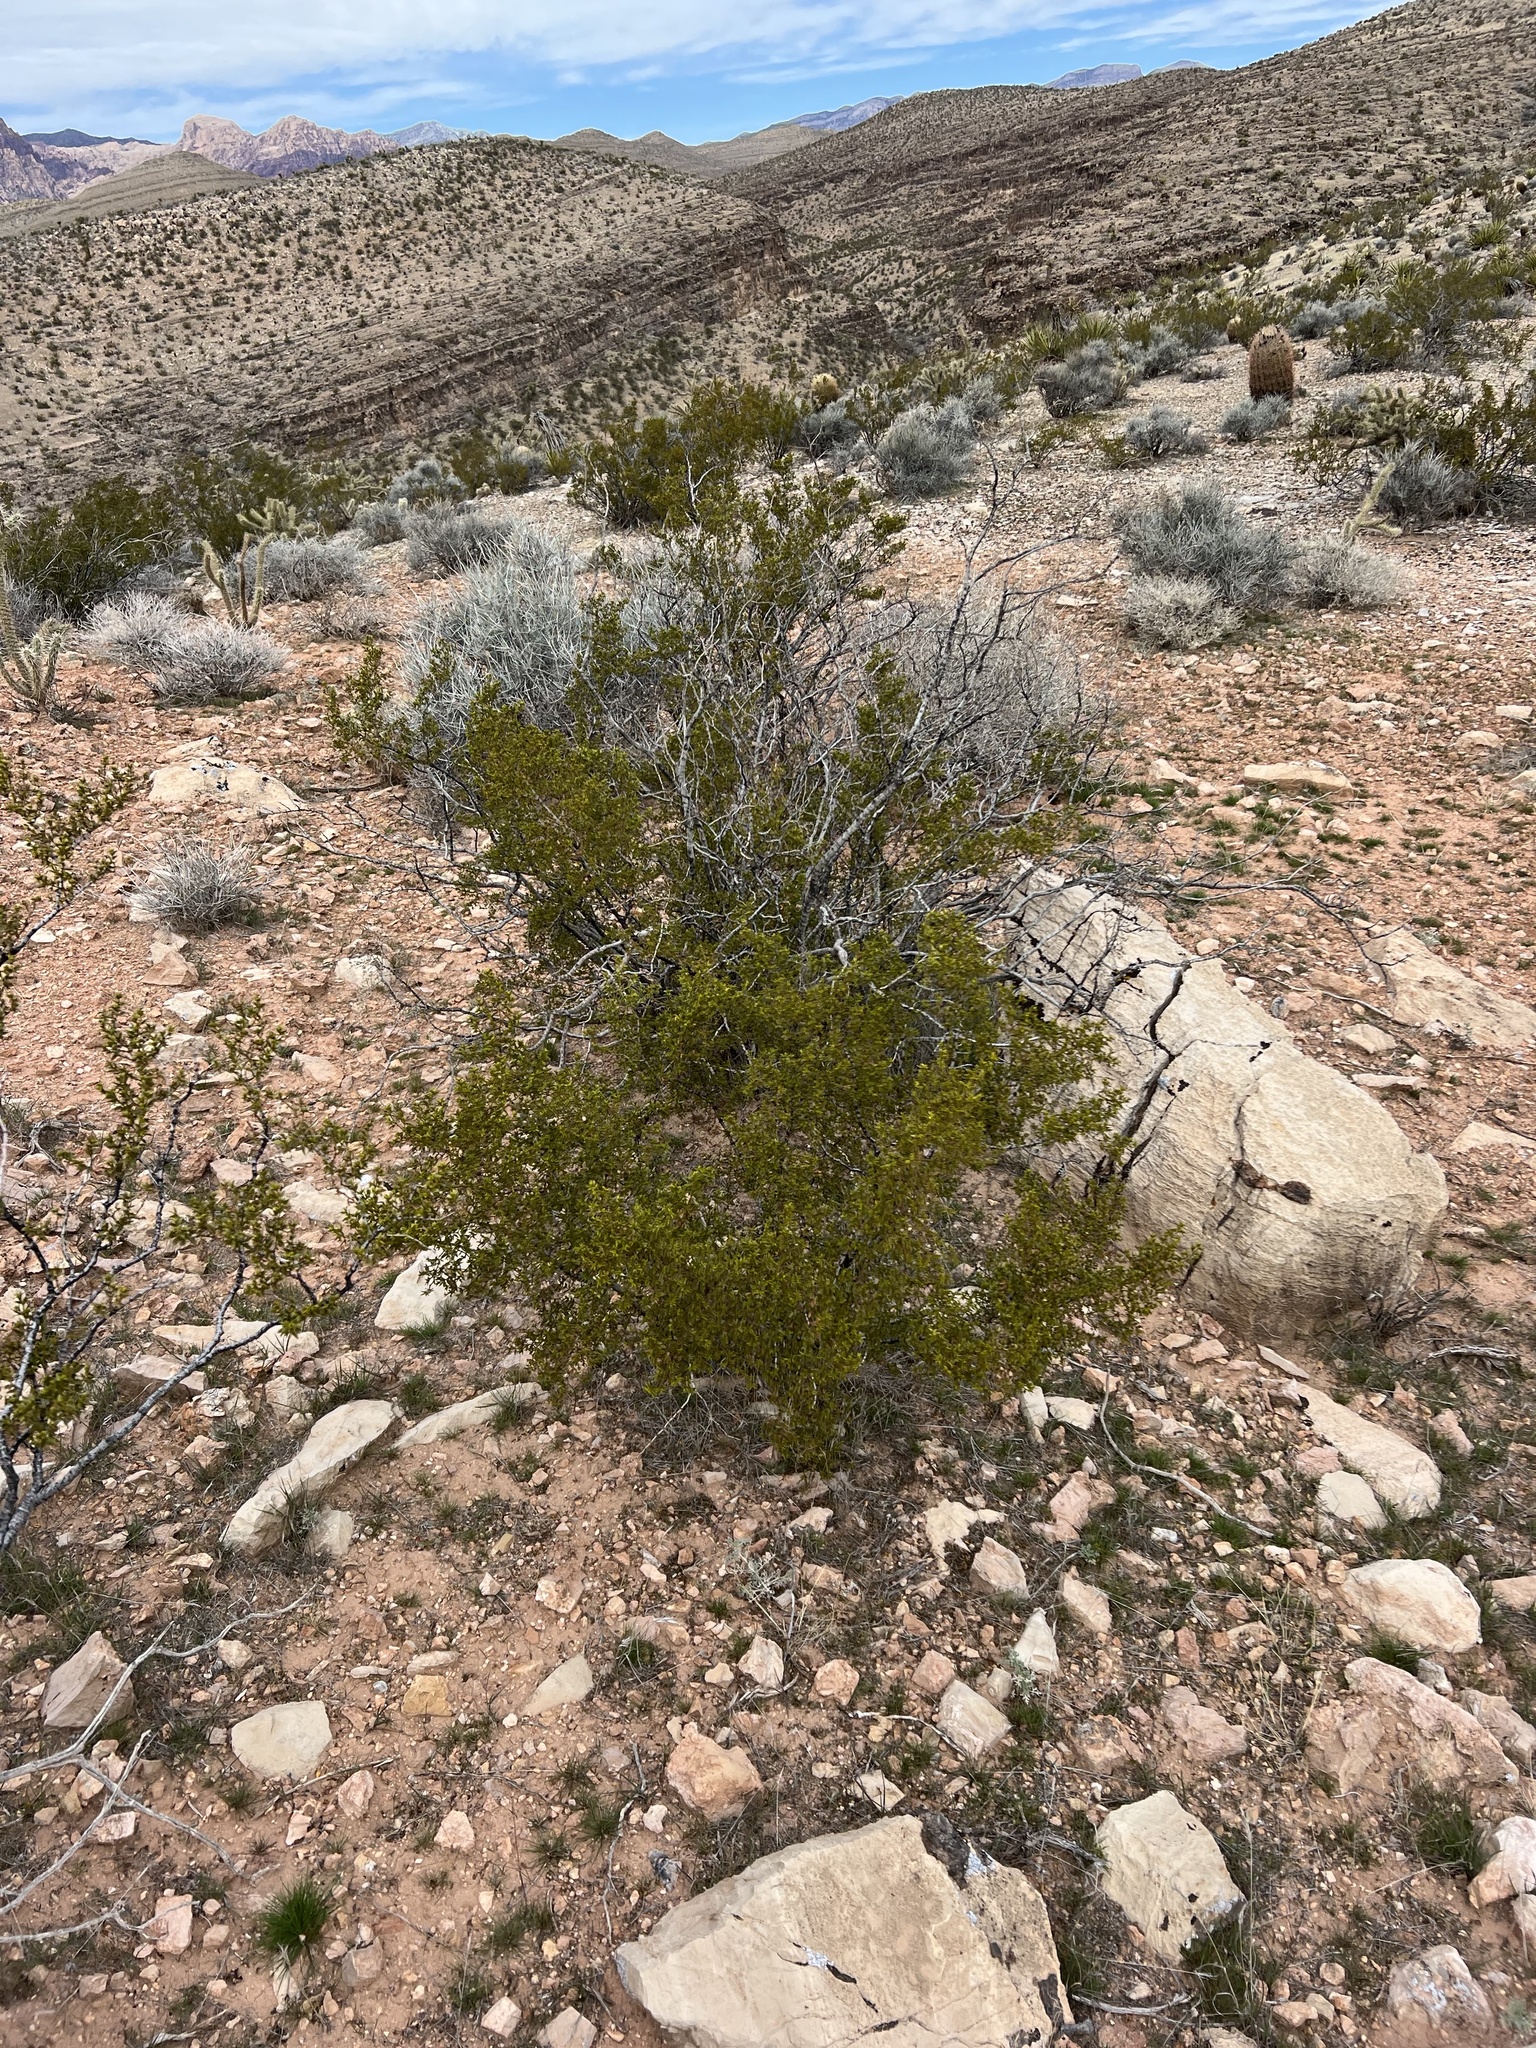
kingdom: Plantae
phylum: Tracheophyta
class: Magnoliopsida
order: Zygophyllales
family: Zygophyllaceae
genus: Larrea
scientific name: Larrea tridentata
